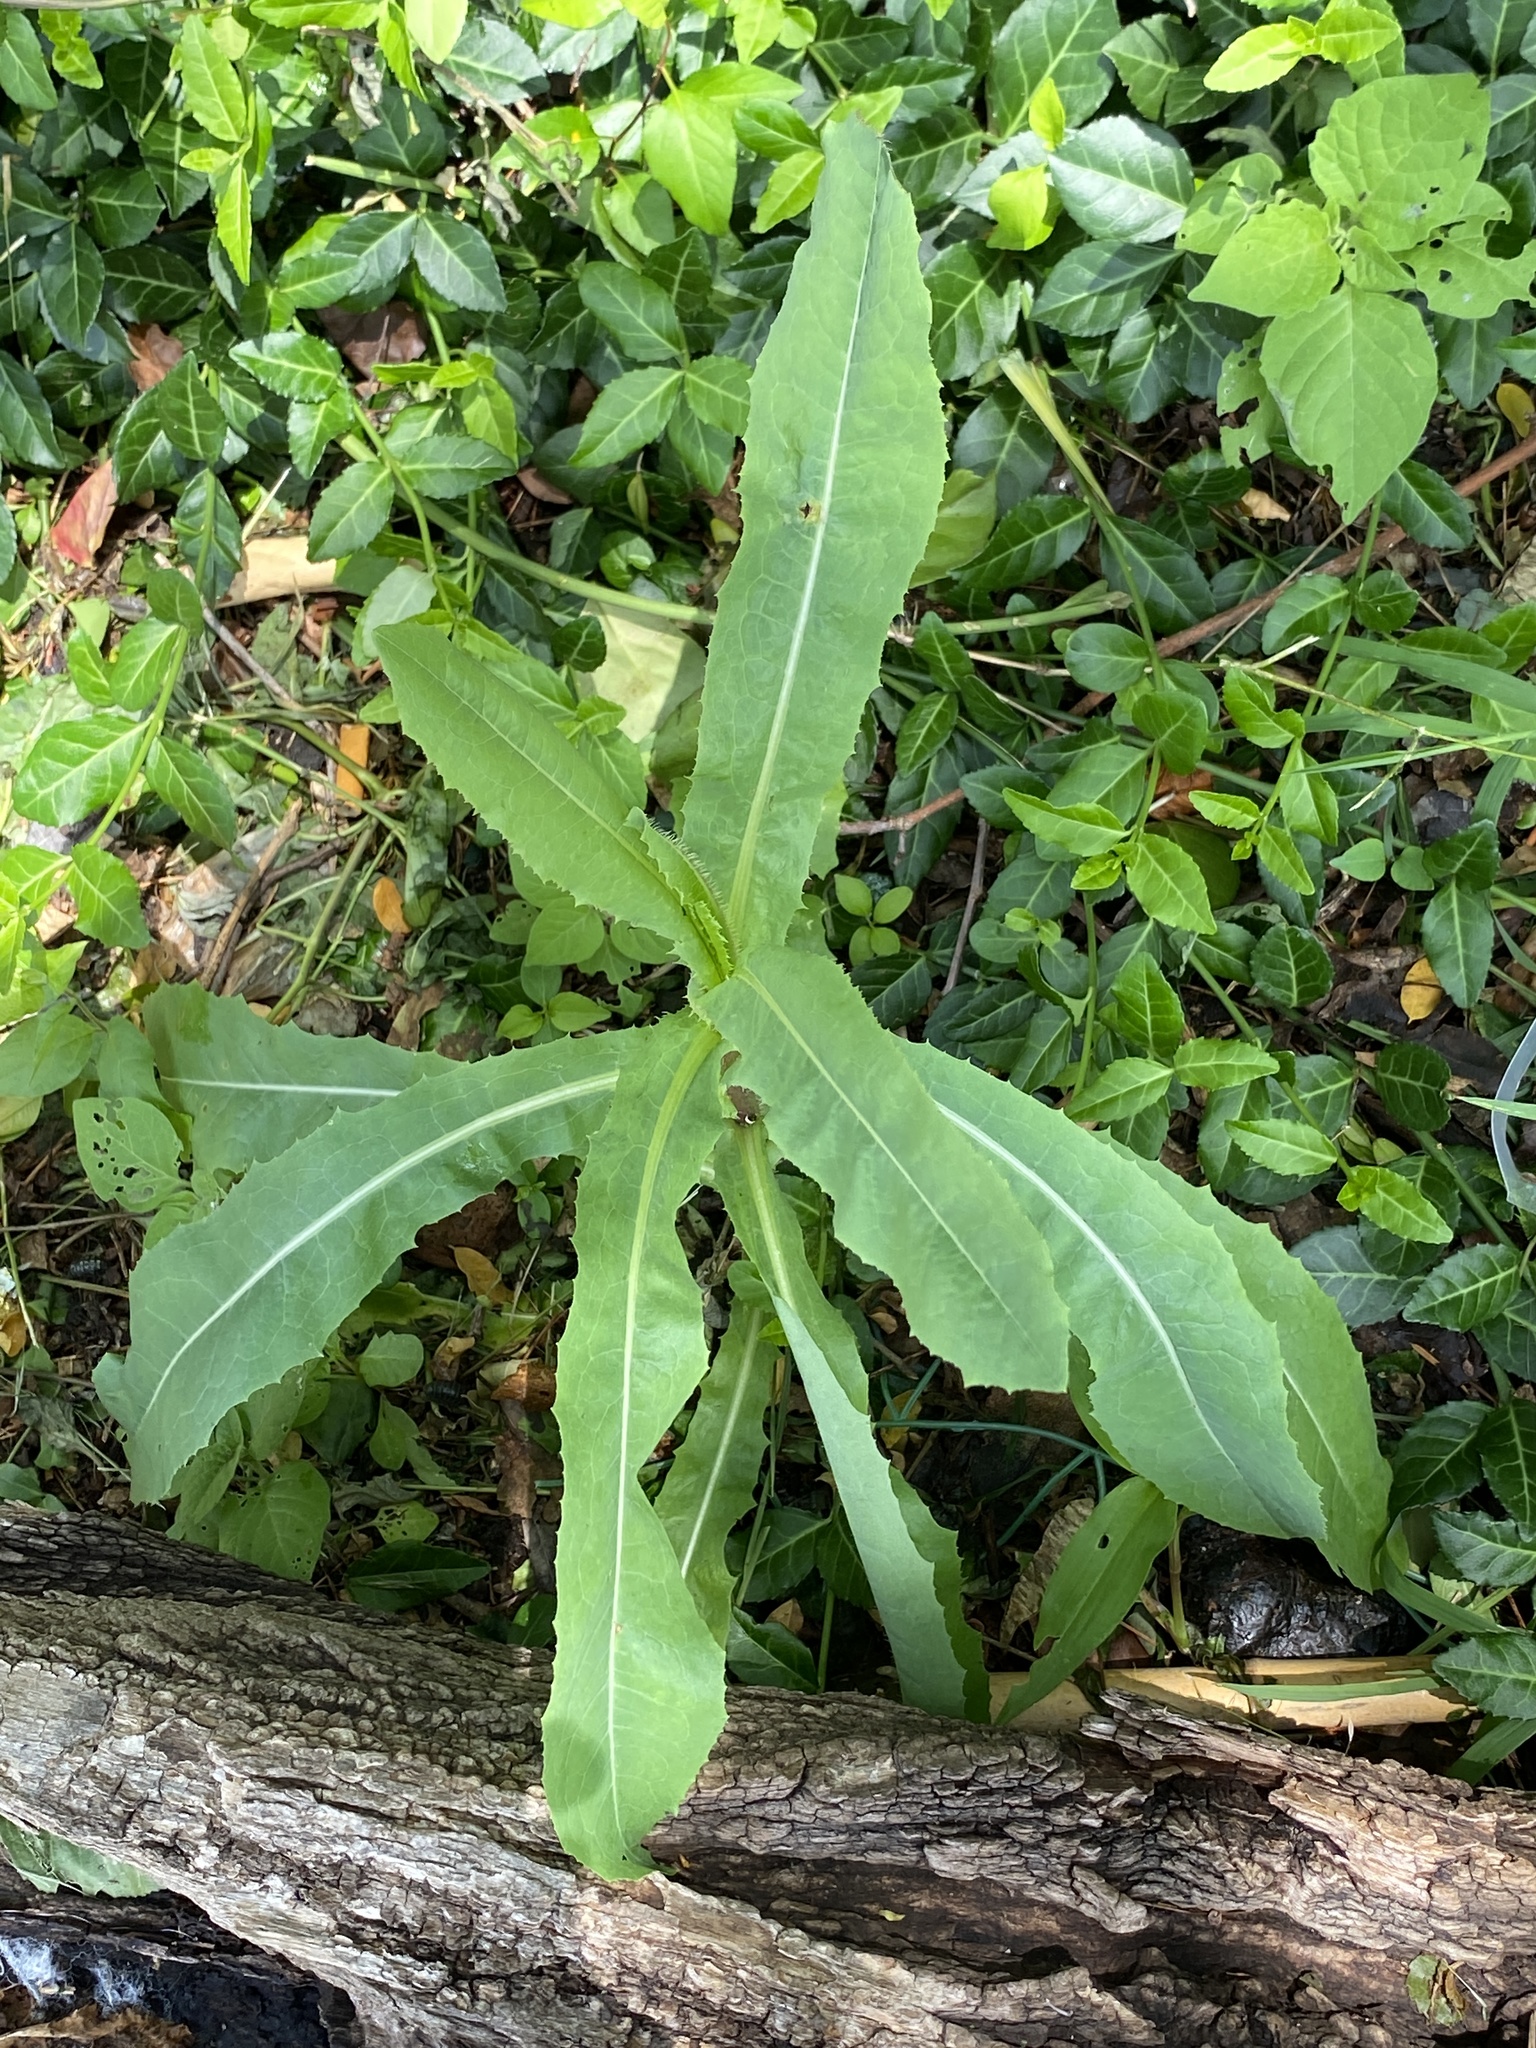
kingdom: Plantae
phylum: Tracheophyta
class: Magnoliopsida
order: Asterales
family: Asteraceae
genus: Lactuca
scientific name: Lactuca serriola
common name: Prickly lettuce
